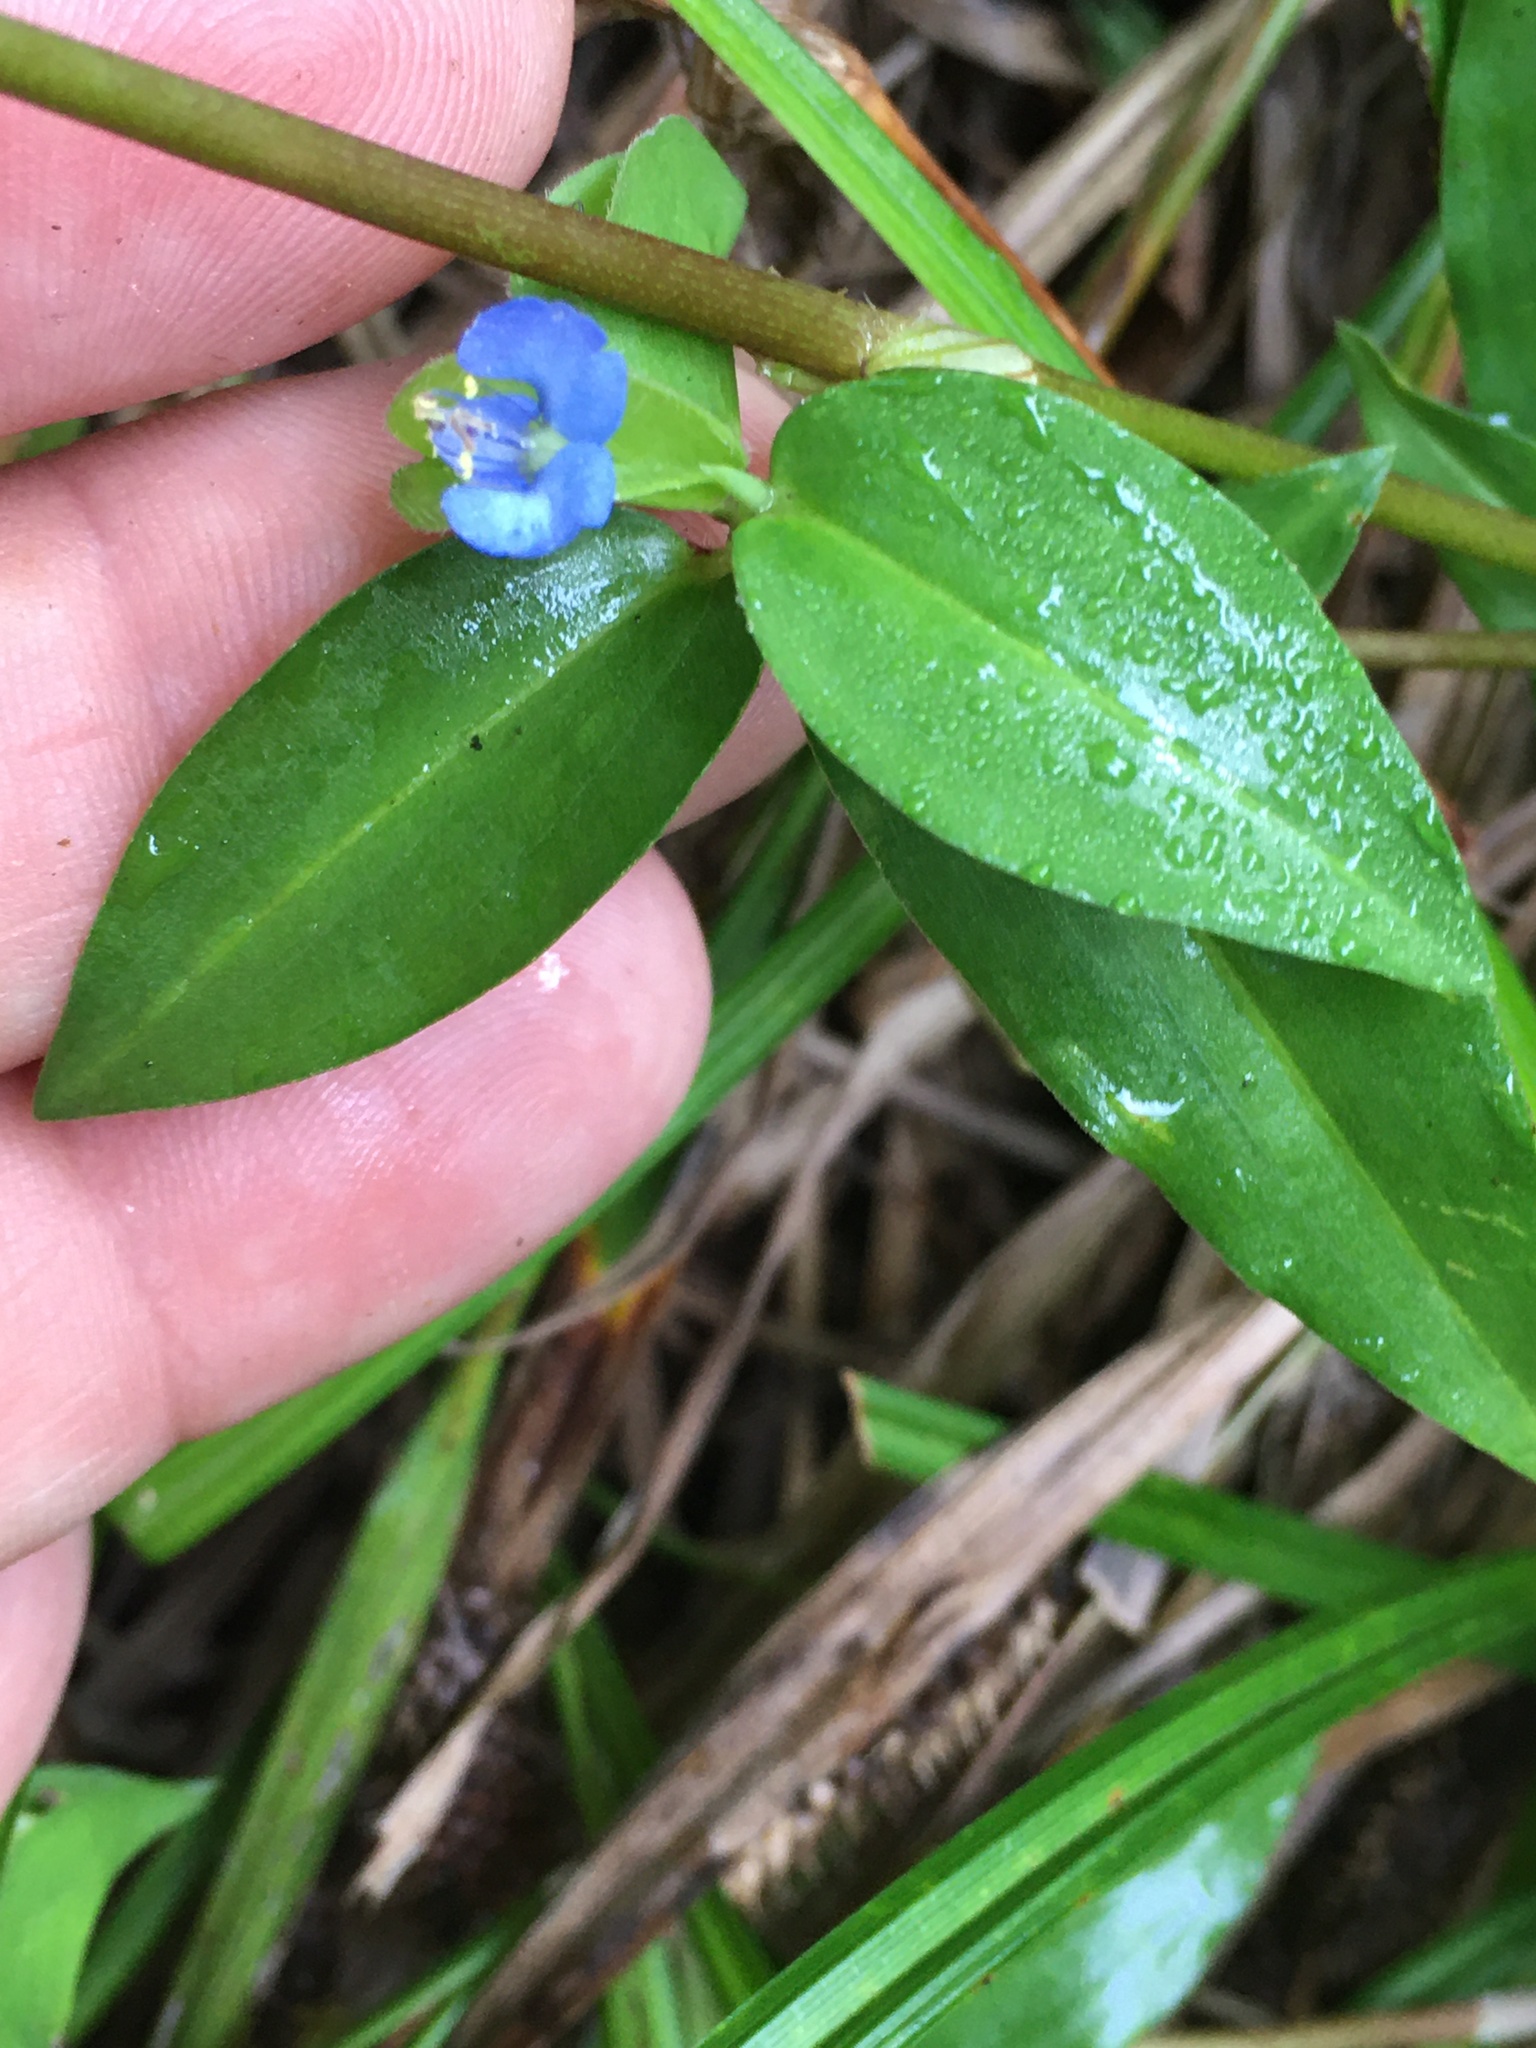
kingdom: Plantae
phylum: Tracheophyta
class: Liliopsida
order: Commelinales
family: Commelinaceae
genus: Commelina
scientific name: Commelina diffusa
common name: Climbing dayflower
